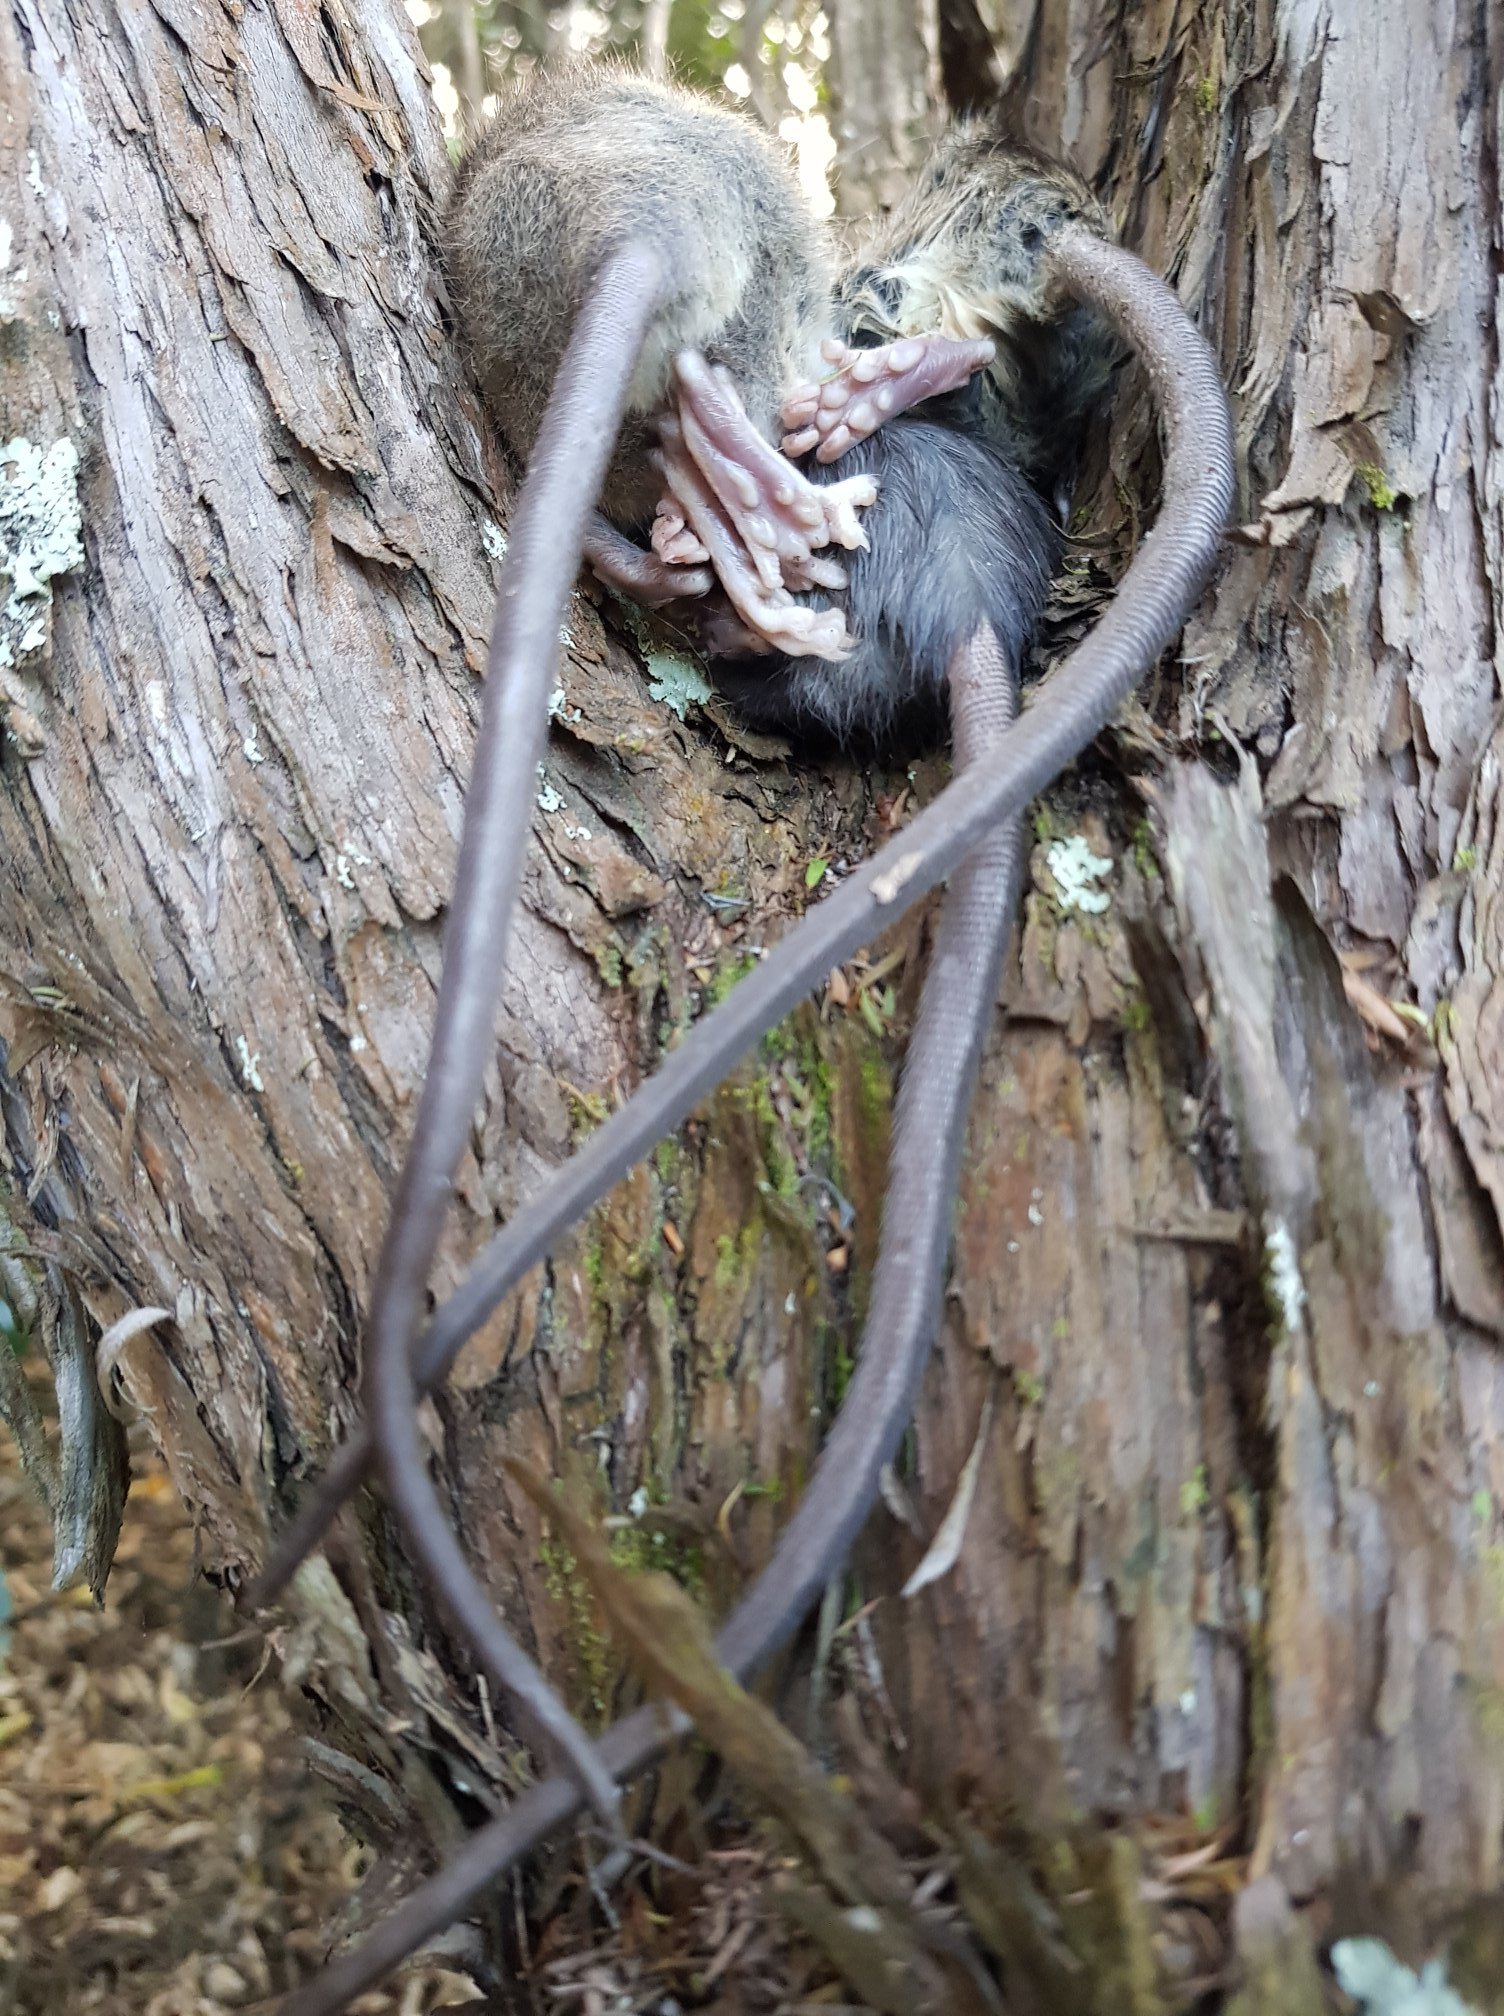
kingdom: Animalia
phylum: Chordata
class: Mammalia
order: Rodentia
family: Muridae
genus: Rattus
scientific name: Rattus rattus
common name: Black rat
